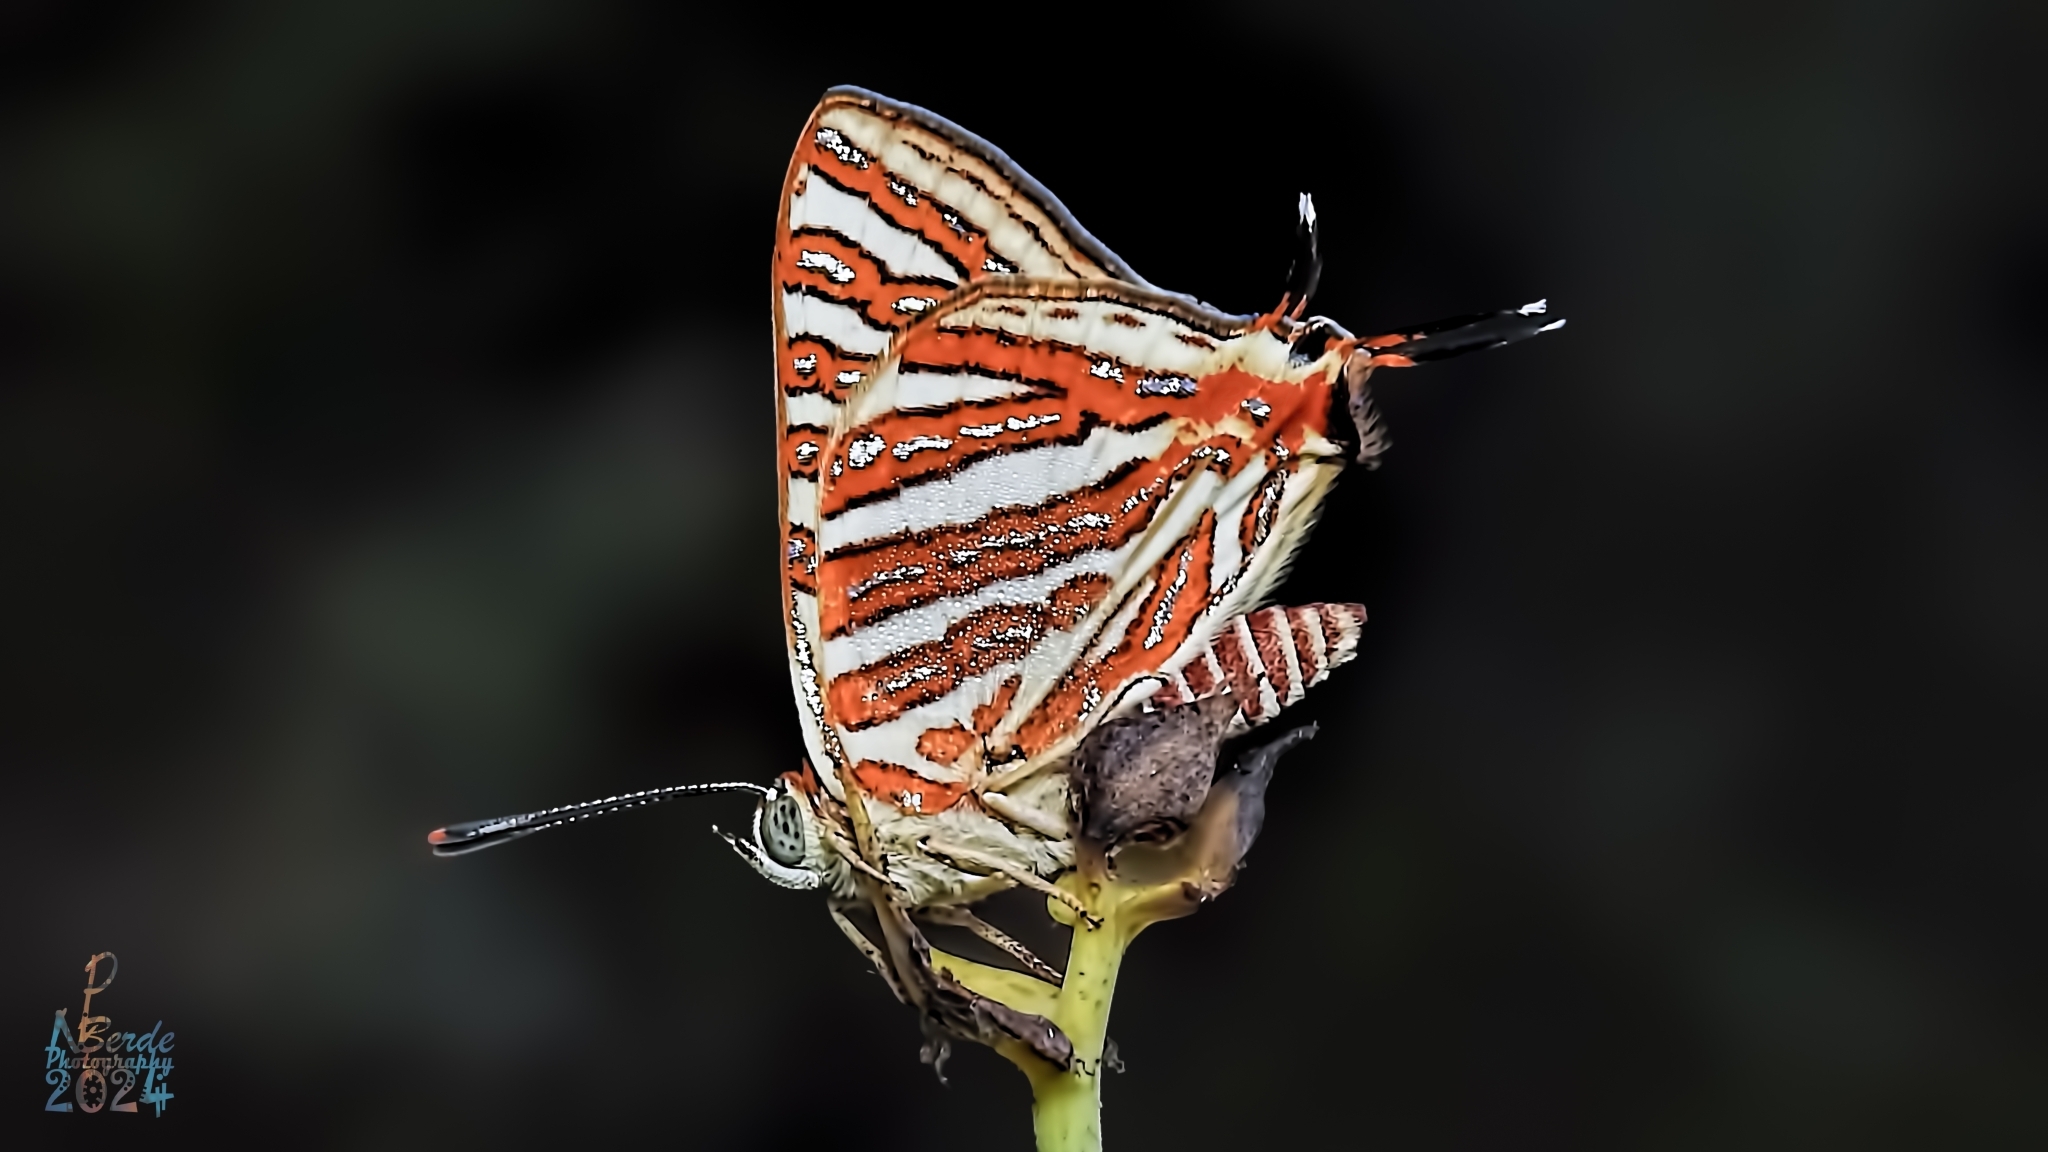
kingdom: Animalia
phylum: Arthropoda
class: Insecta
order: Lepidoptera
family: Lycaenidae
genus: Cigaritis
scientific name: Cigaritis vulcanus
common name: Common silverline
